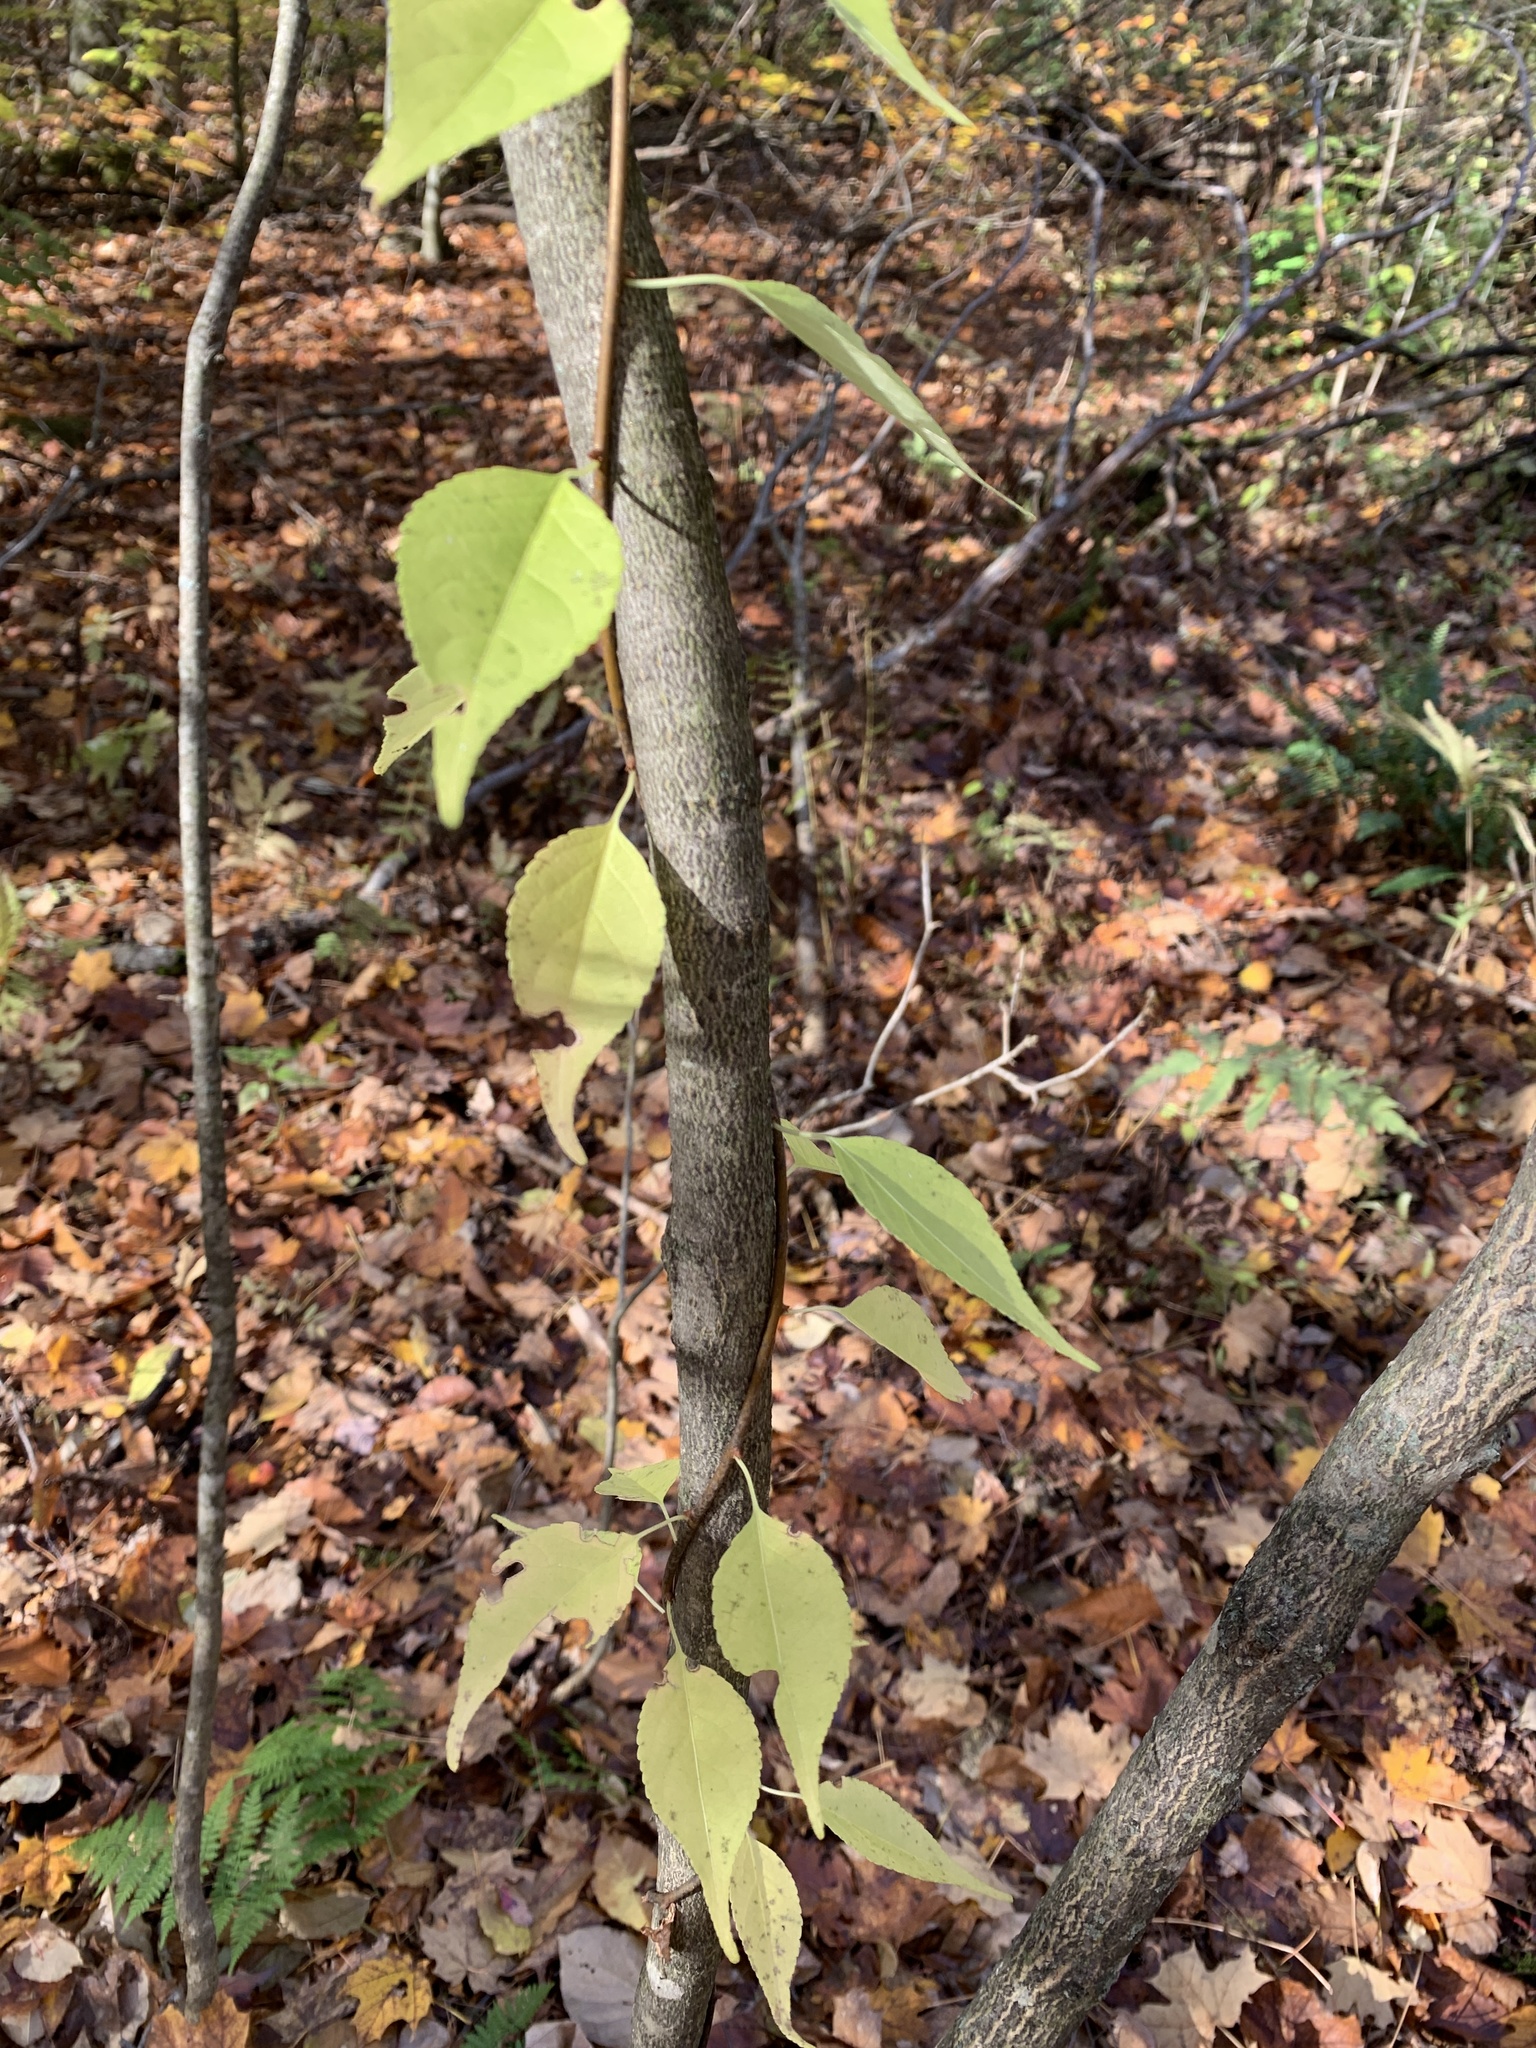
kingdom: Plantae
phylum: Tracheophyta
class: Magnoliopsida
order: Celastrales
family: Celastraceae
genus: Celastrus
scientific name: Celastrus orbiculatus
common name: Oriental bittersweet
